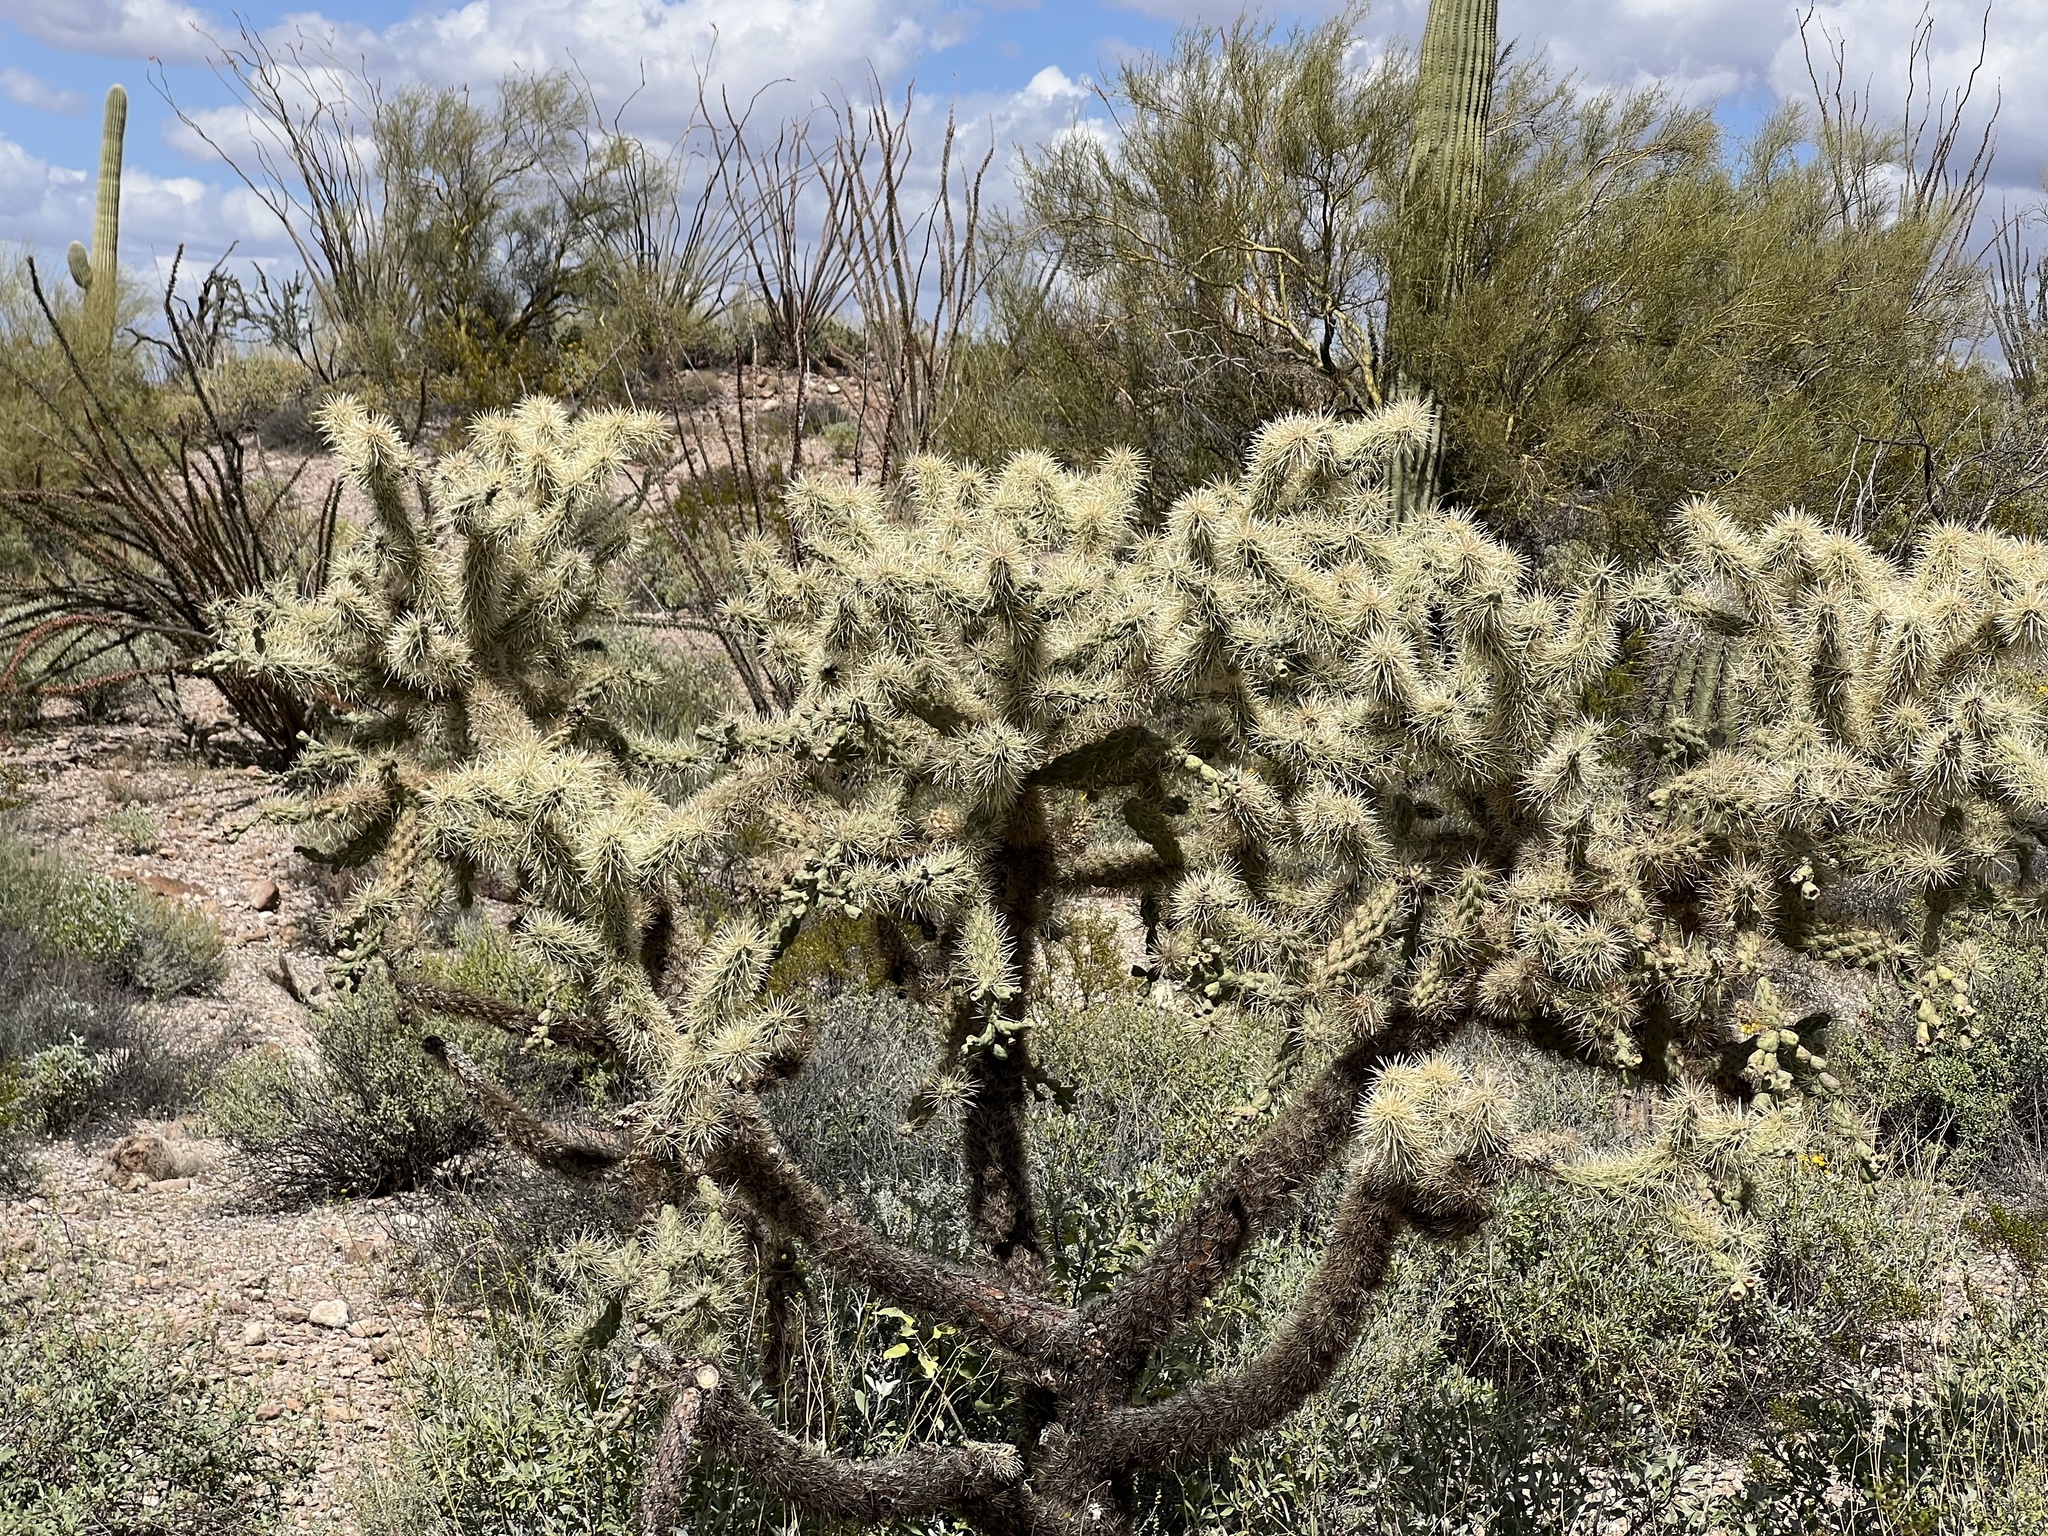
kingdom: Plantae
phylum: Tracheophyta
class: Magnoliopsida
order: Caryophyllales
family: Cactaceae
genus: Cylindropuntia
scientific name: Cylindropuntia fulgida
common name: Jumping cholla
